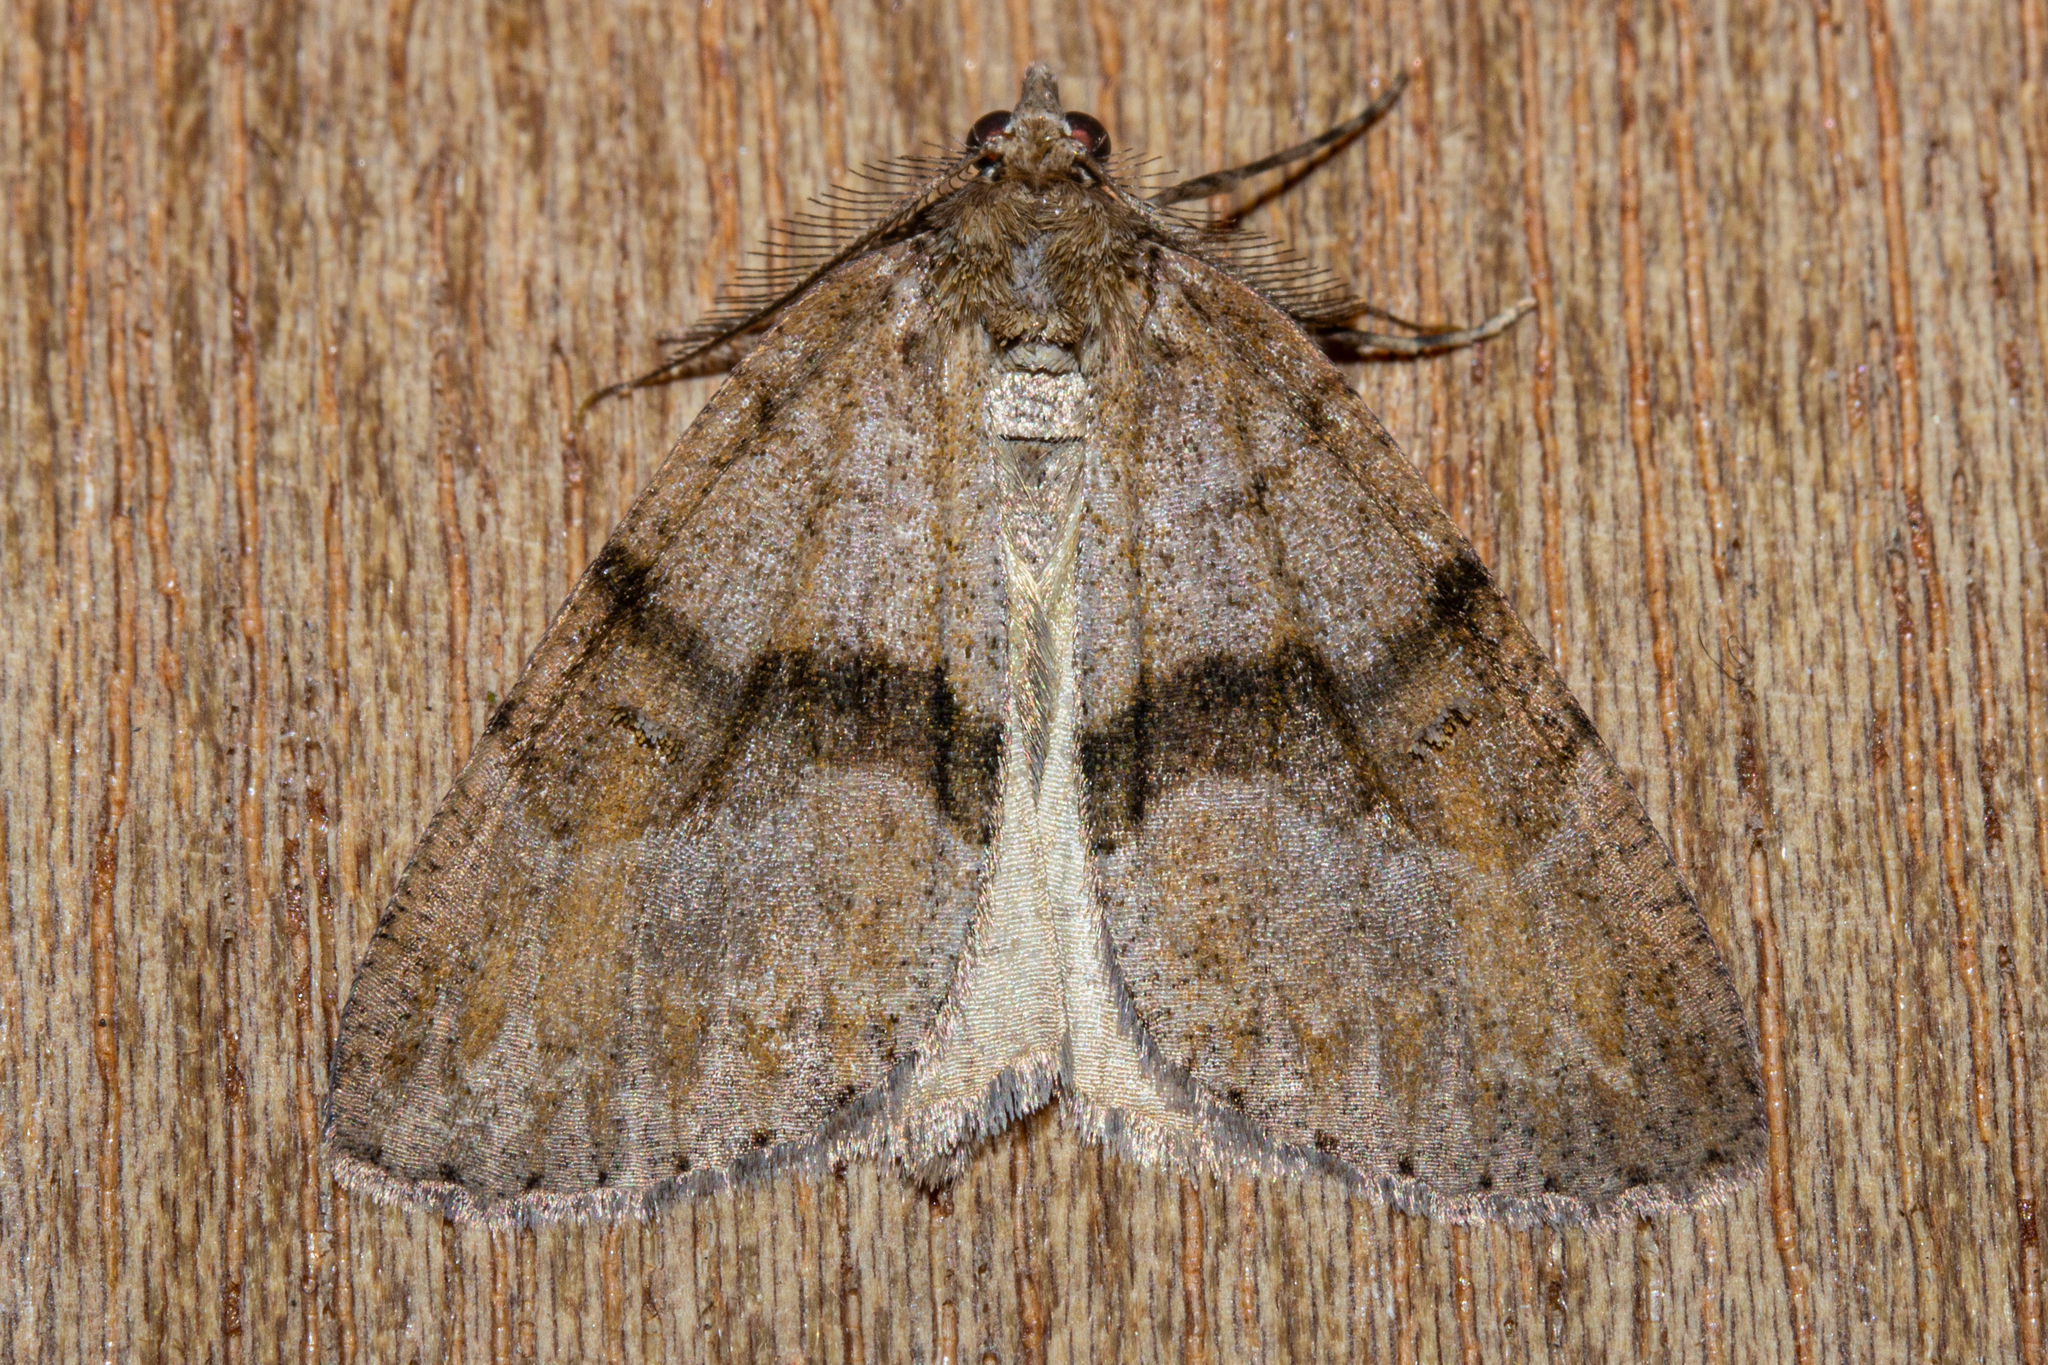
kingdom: Animalia
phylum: Arthropoda
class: Insecta
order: Lepidoptera
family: Geometridae
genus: Pseudocoremia
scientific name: Pseudocoremia suavis
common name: Common forest looper
